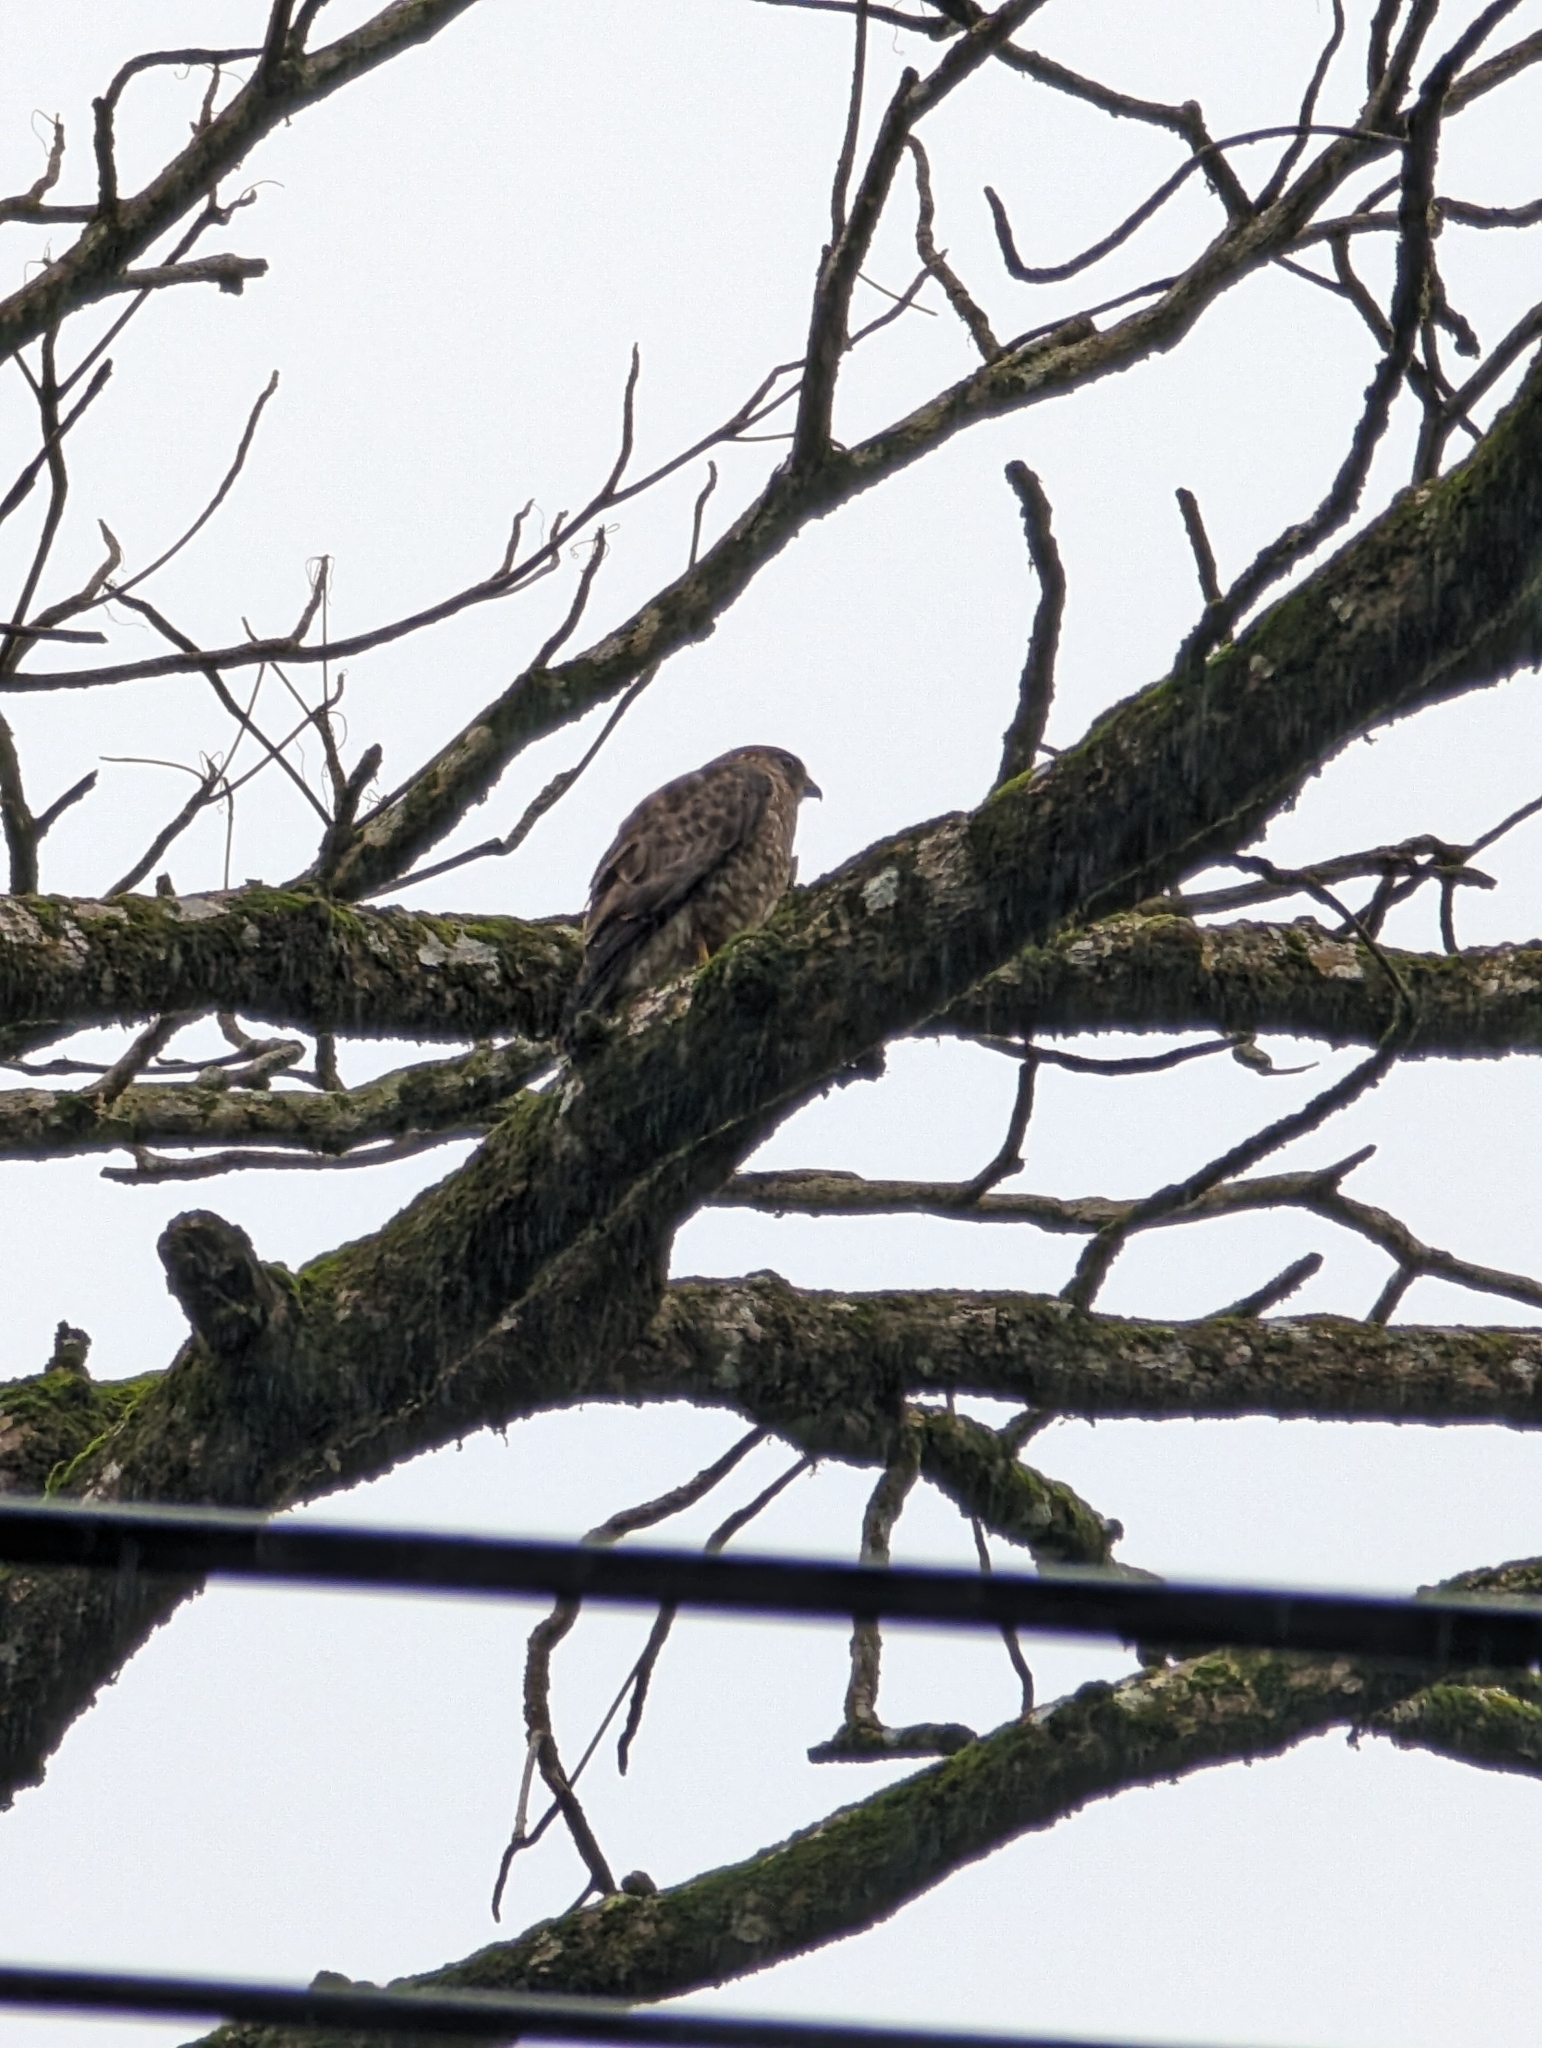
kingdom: Animalia
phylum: Chordata
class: Aves
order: Accipitriformes
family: Accipitridae
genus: Buteo
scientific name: Buteo platypterus
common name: Broad-winged hawk
